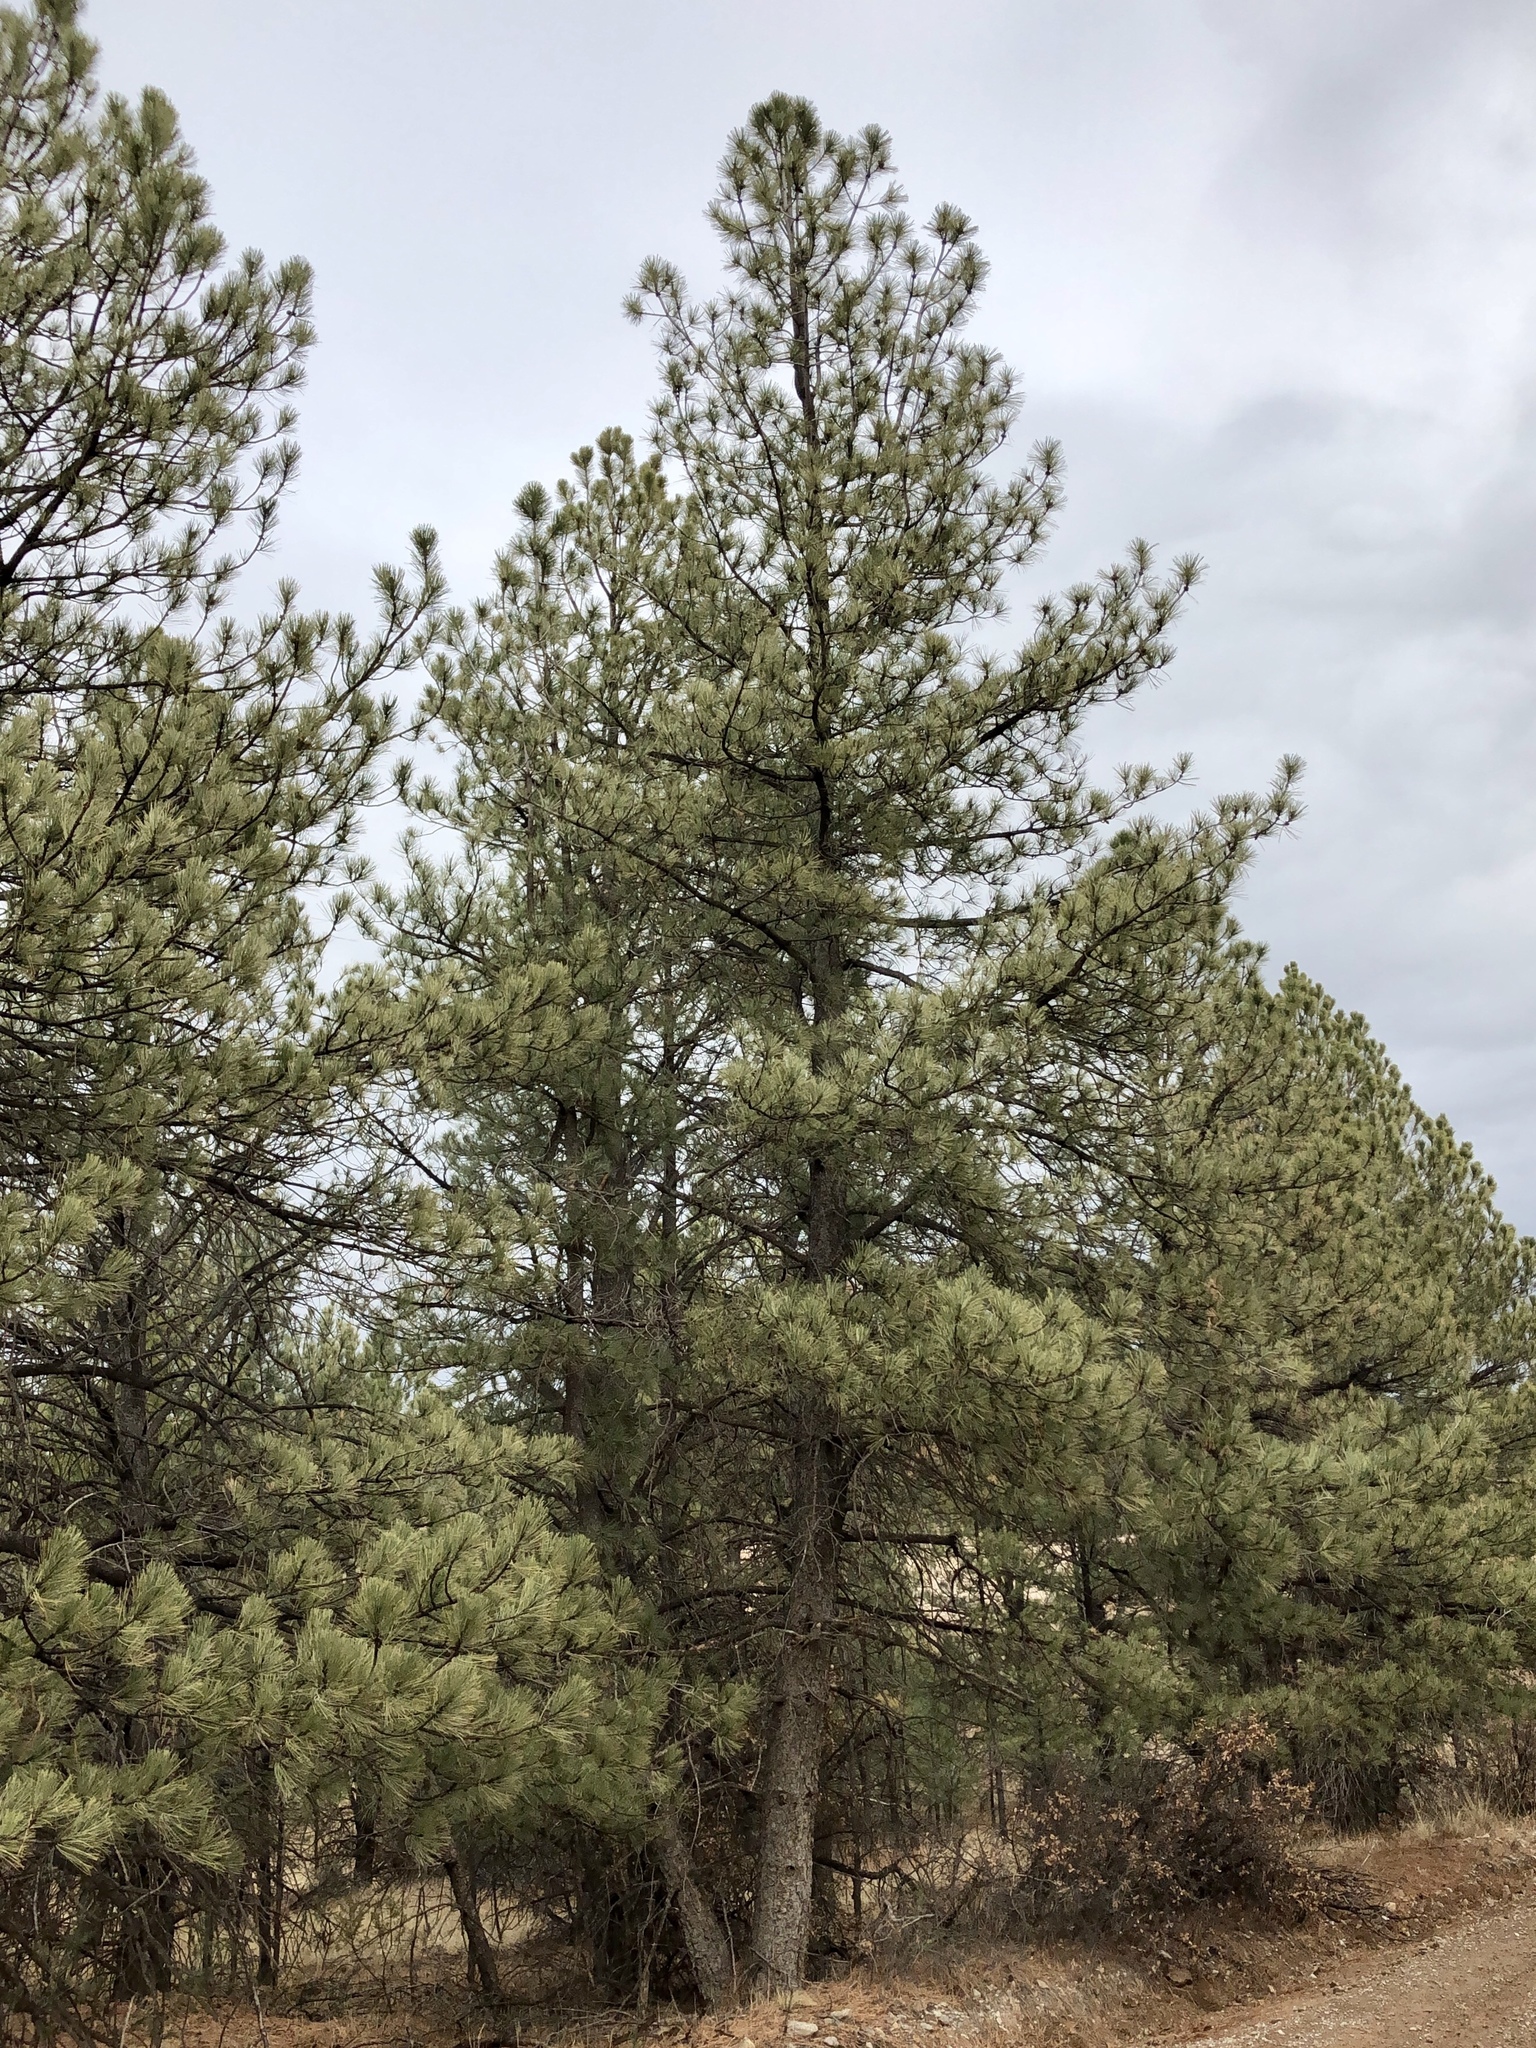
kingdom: Plantae
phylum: Tracheophyta
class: Pinopsida
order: Pinales
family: Pinaceae
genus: Pinus
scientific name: Pinus ponderosa
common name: Western yellow-pine
